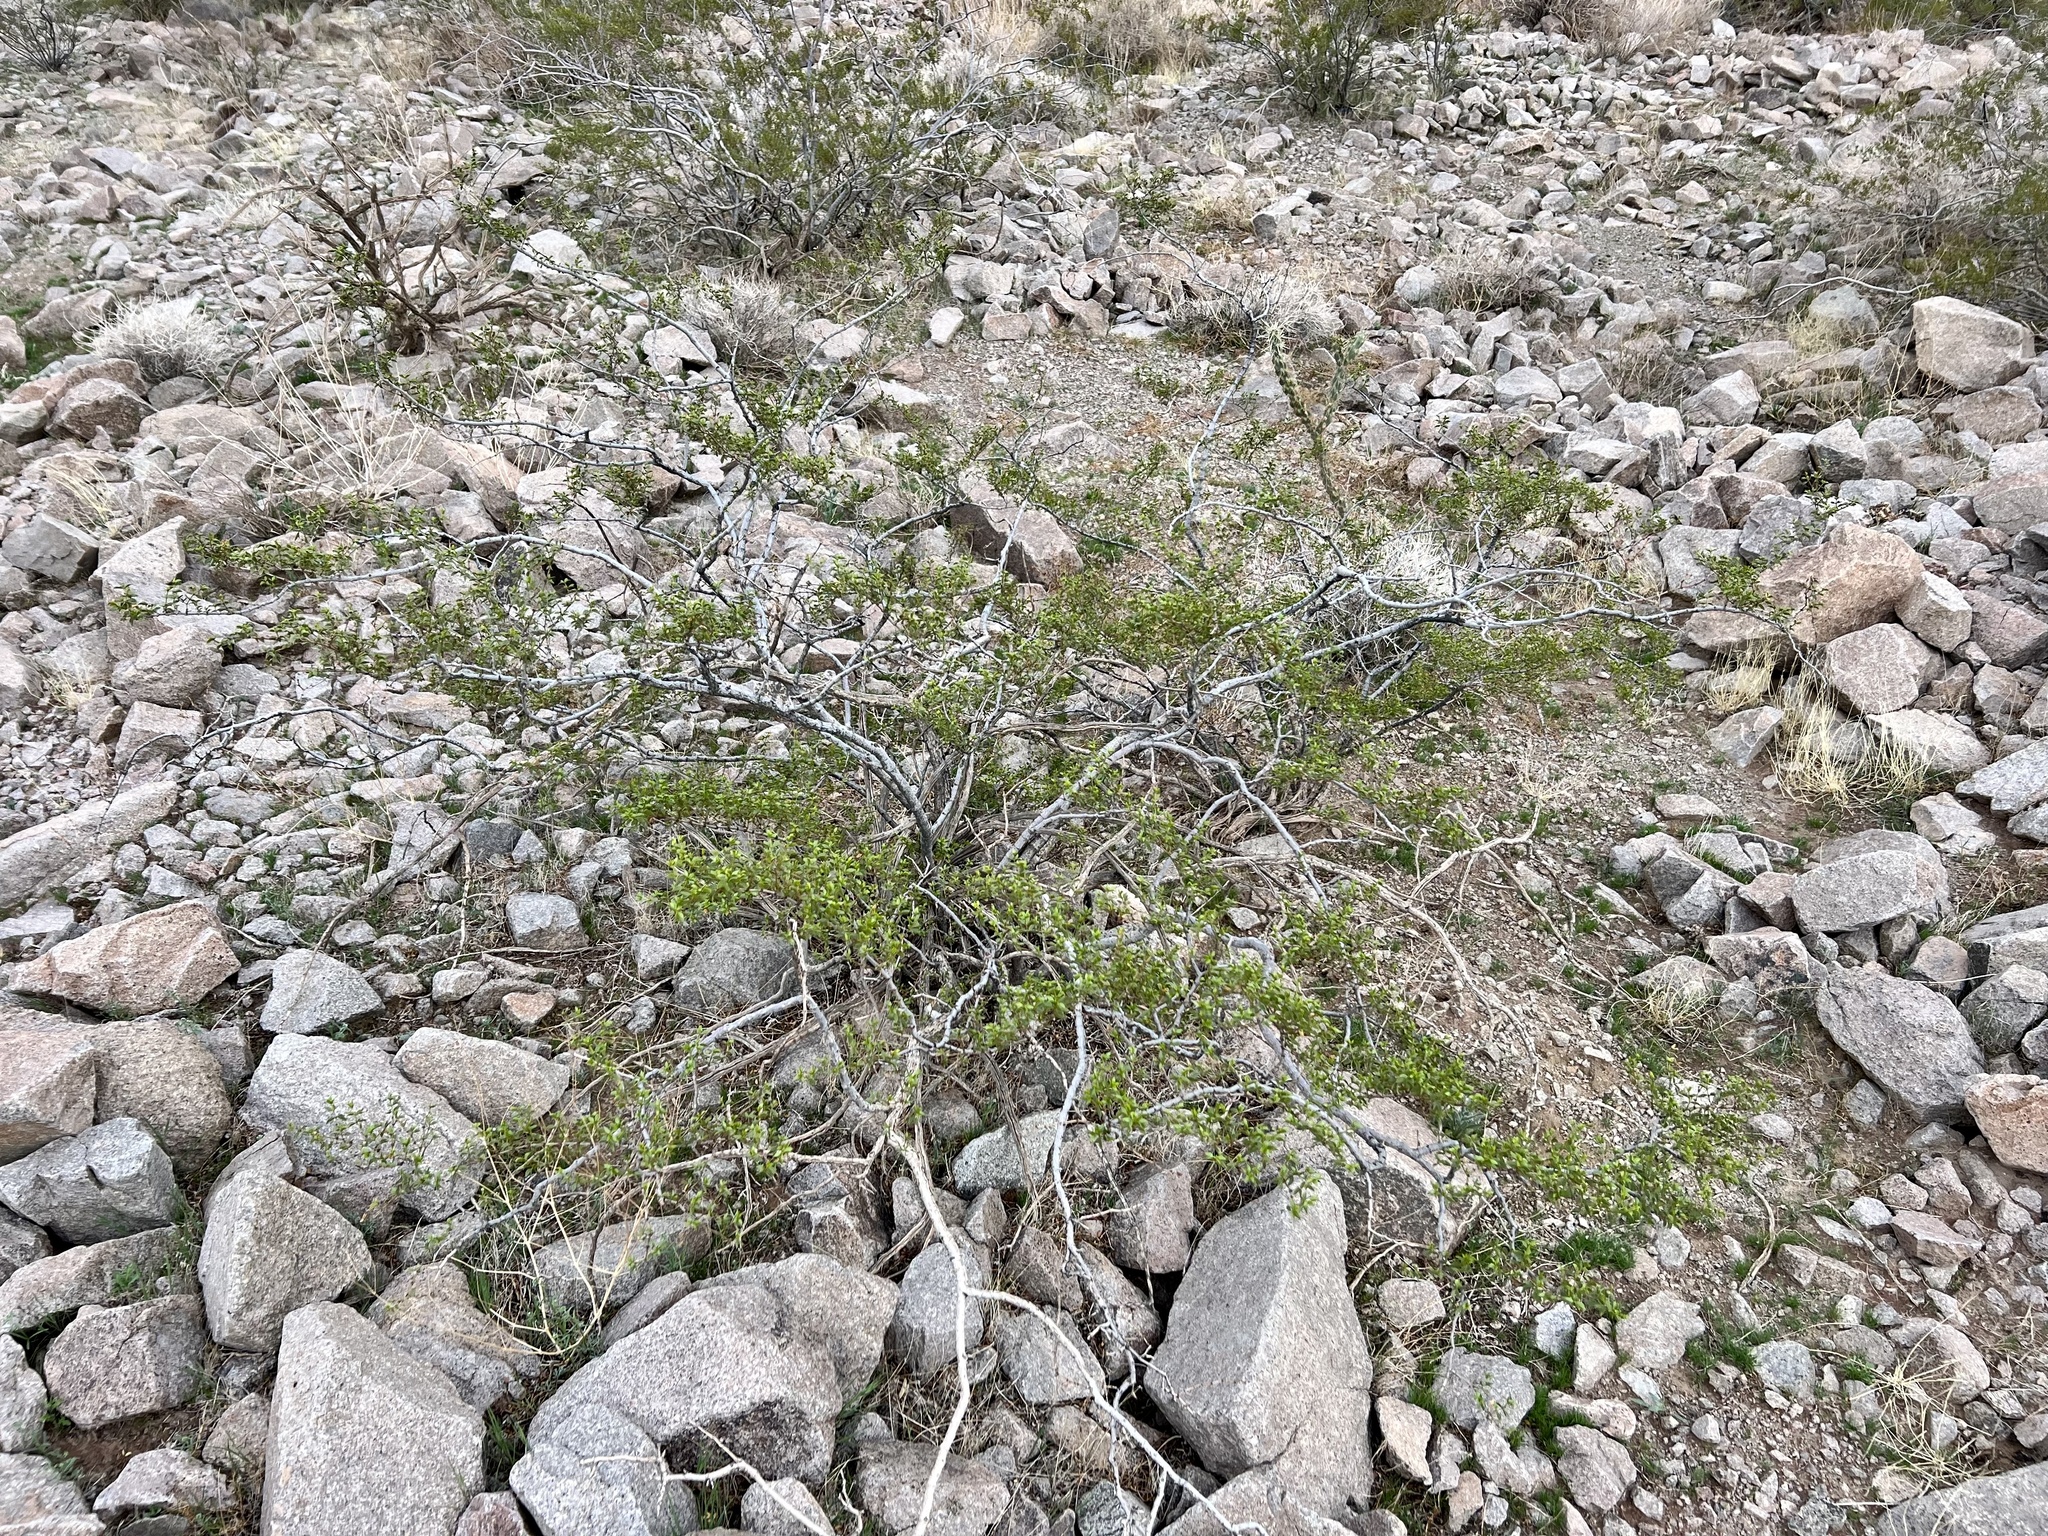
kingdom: Plantae
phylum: Tracheophyta
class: Magnoliopsida
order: Zygophyllales
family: Zygophyllaceae
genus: Larrea
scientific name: Larrea tridentata
